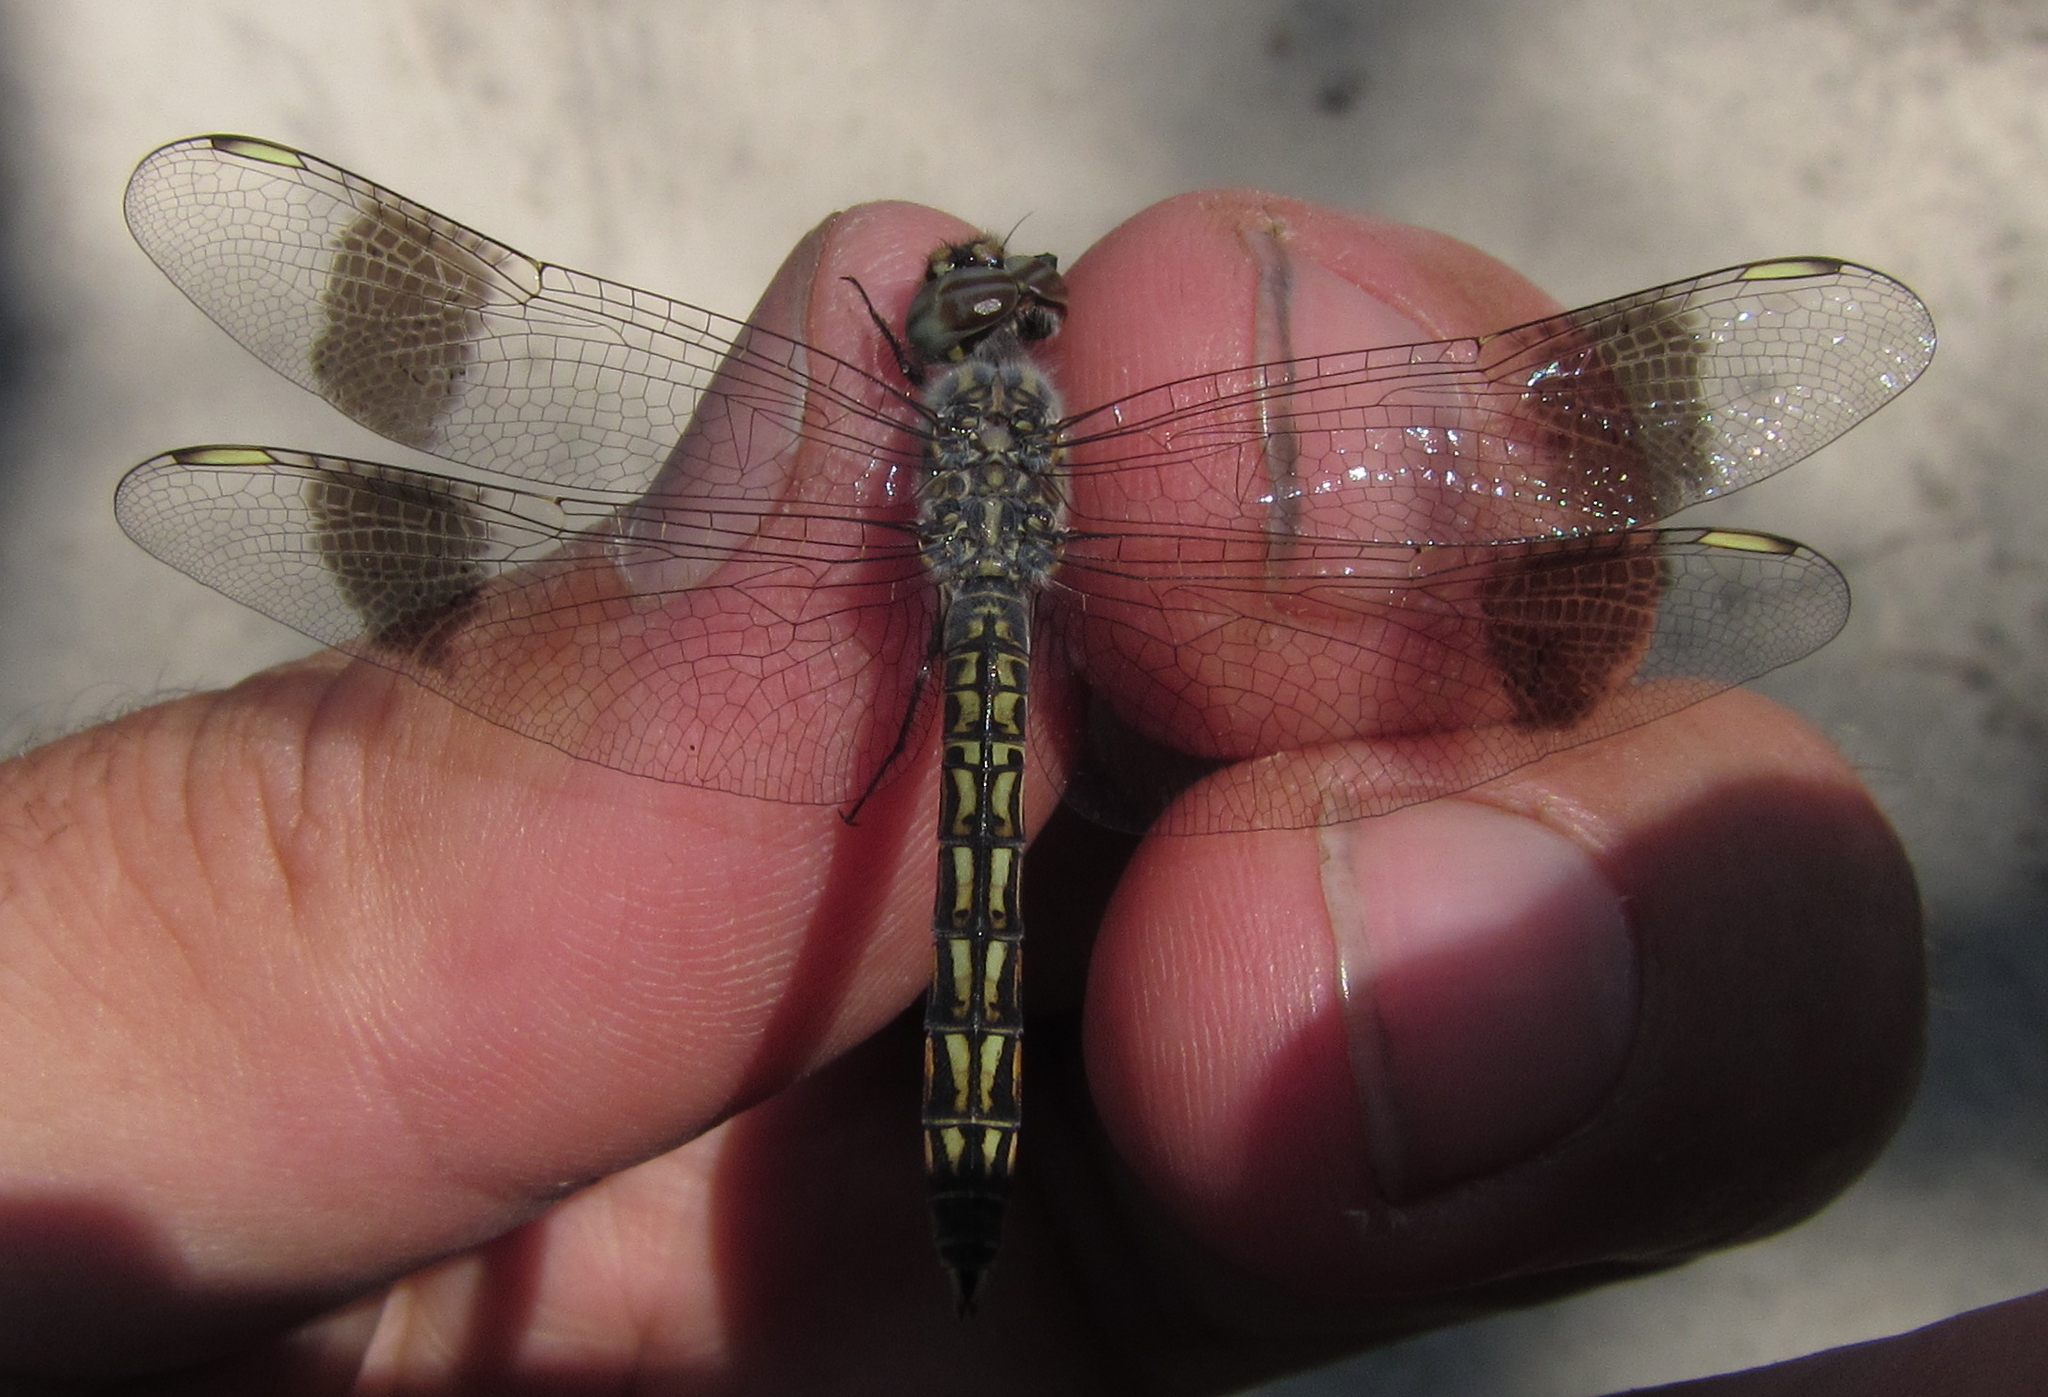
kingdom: Animalia
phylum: Arthropoda
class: Insecta
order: Odonata
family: Libellulidae
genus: Brachythemis
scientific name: Brachythemis leucosticta
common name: Banded groundling
